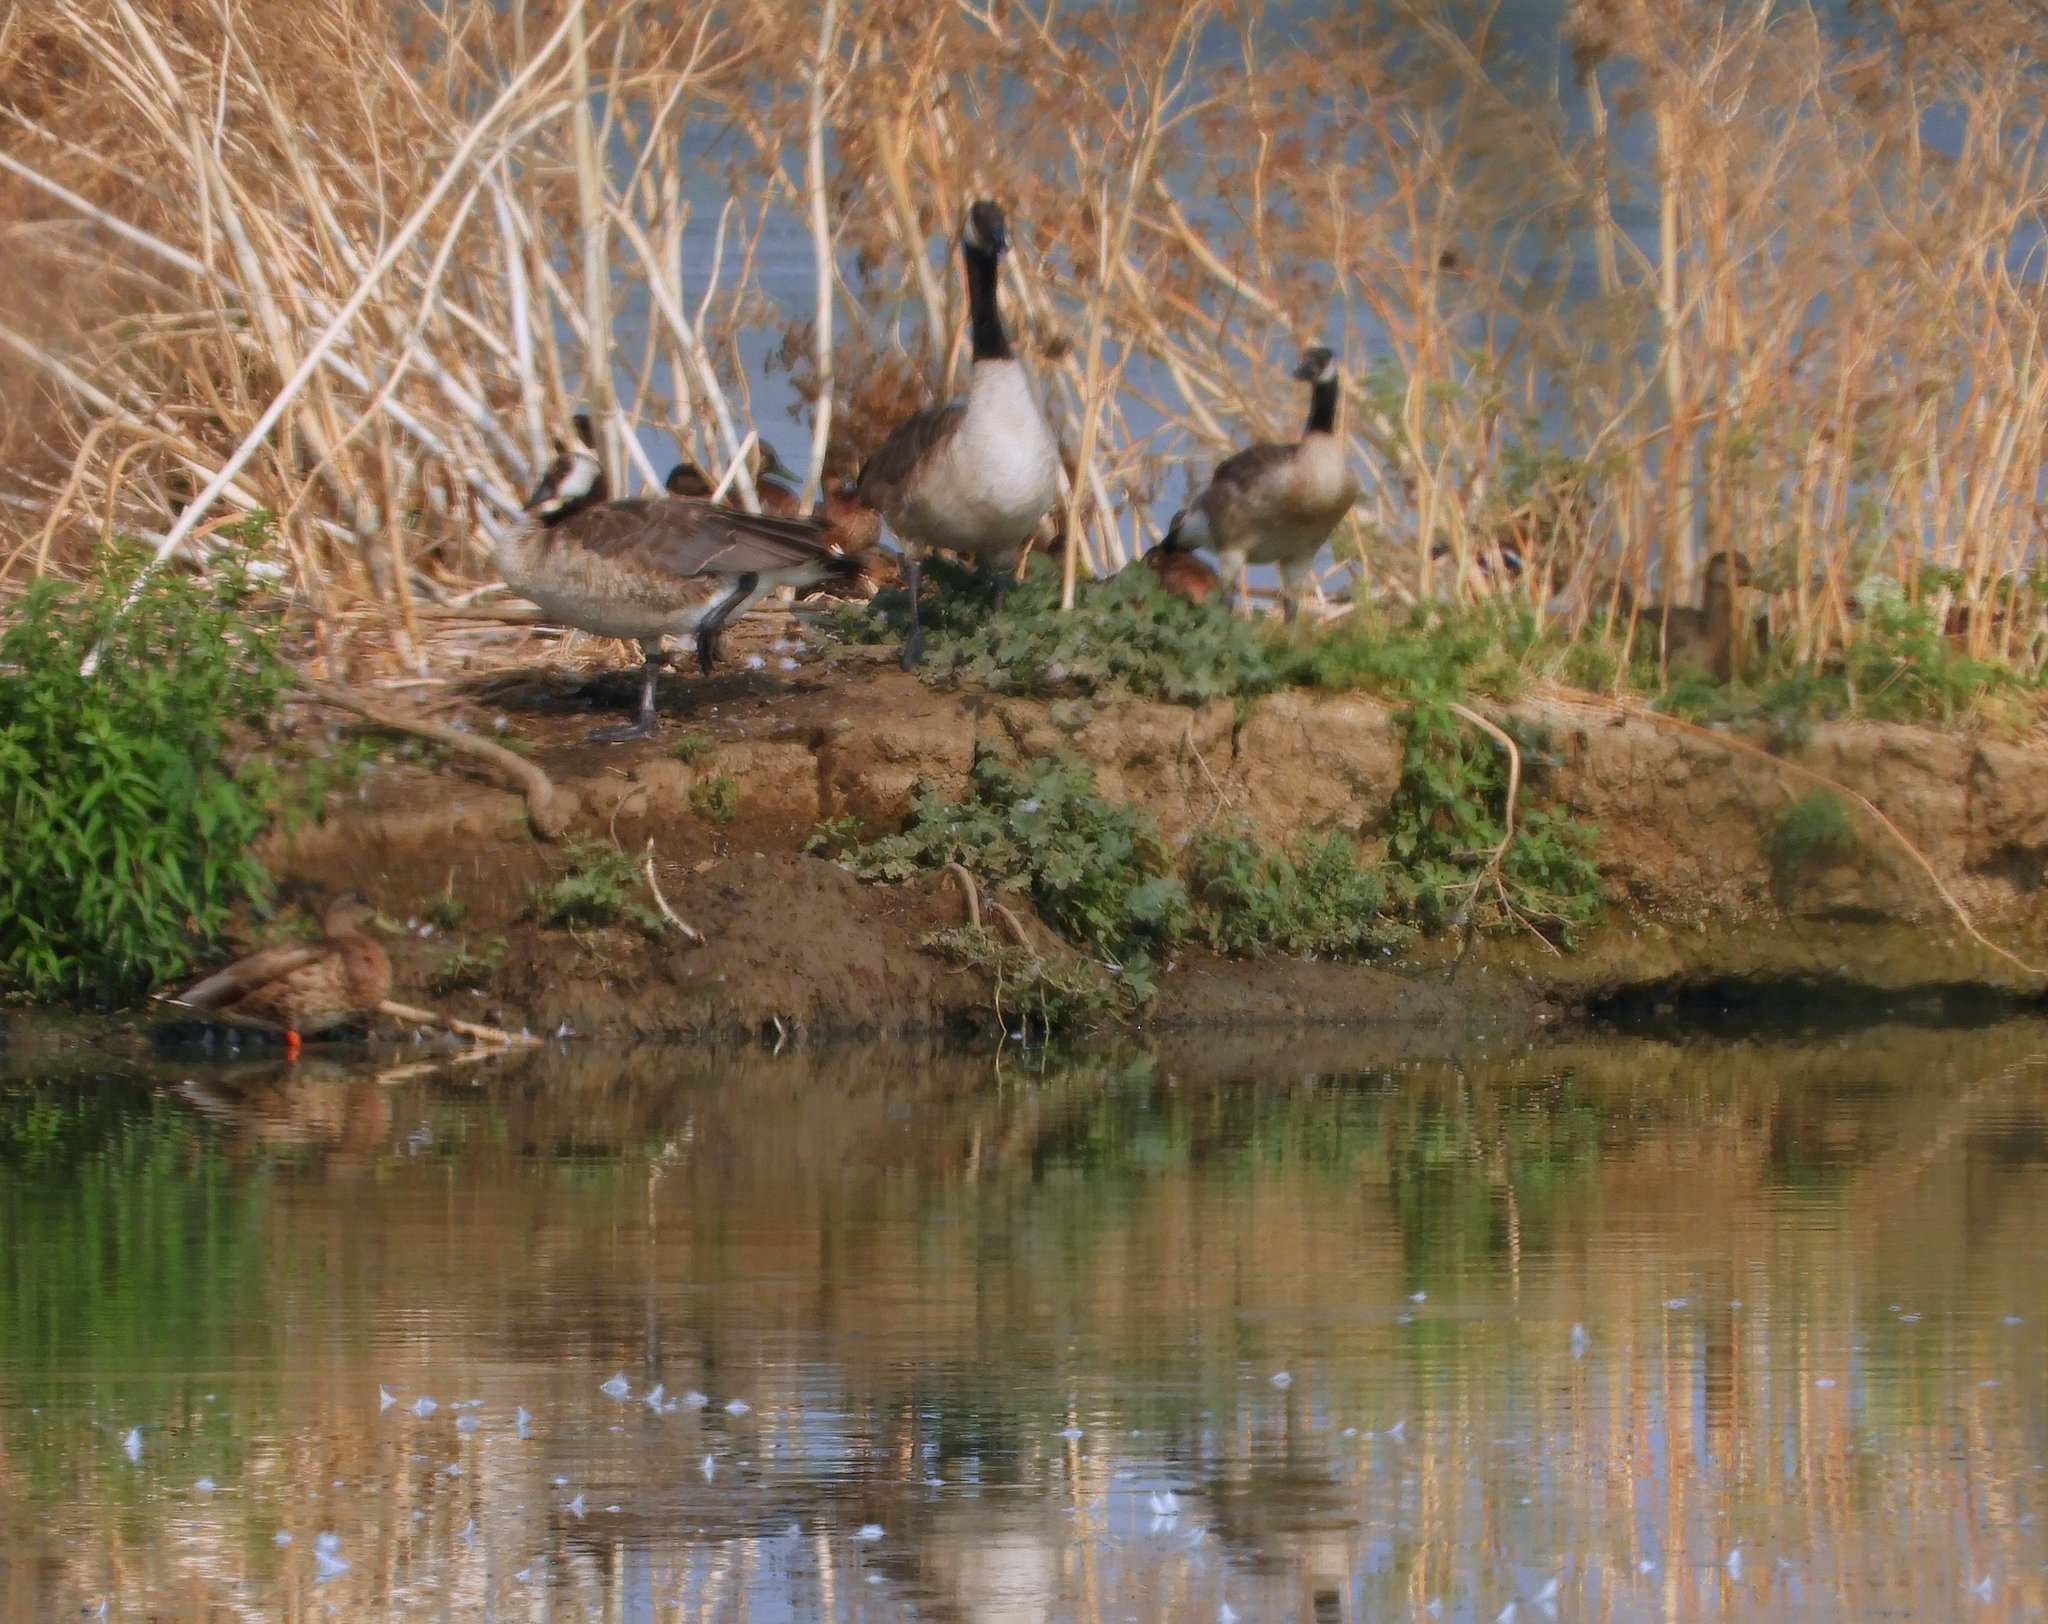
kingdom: Animalia
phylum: Chordata
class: Aves
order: Anseriformes
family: Anatidae
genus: Branta
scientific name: Branta canadensis
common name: Canada goose
